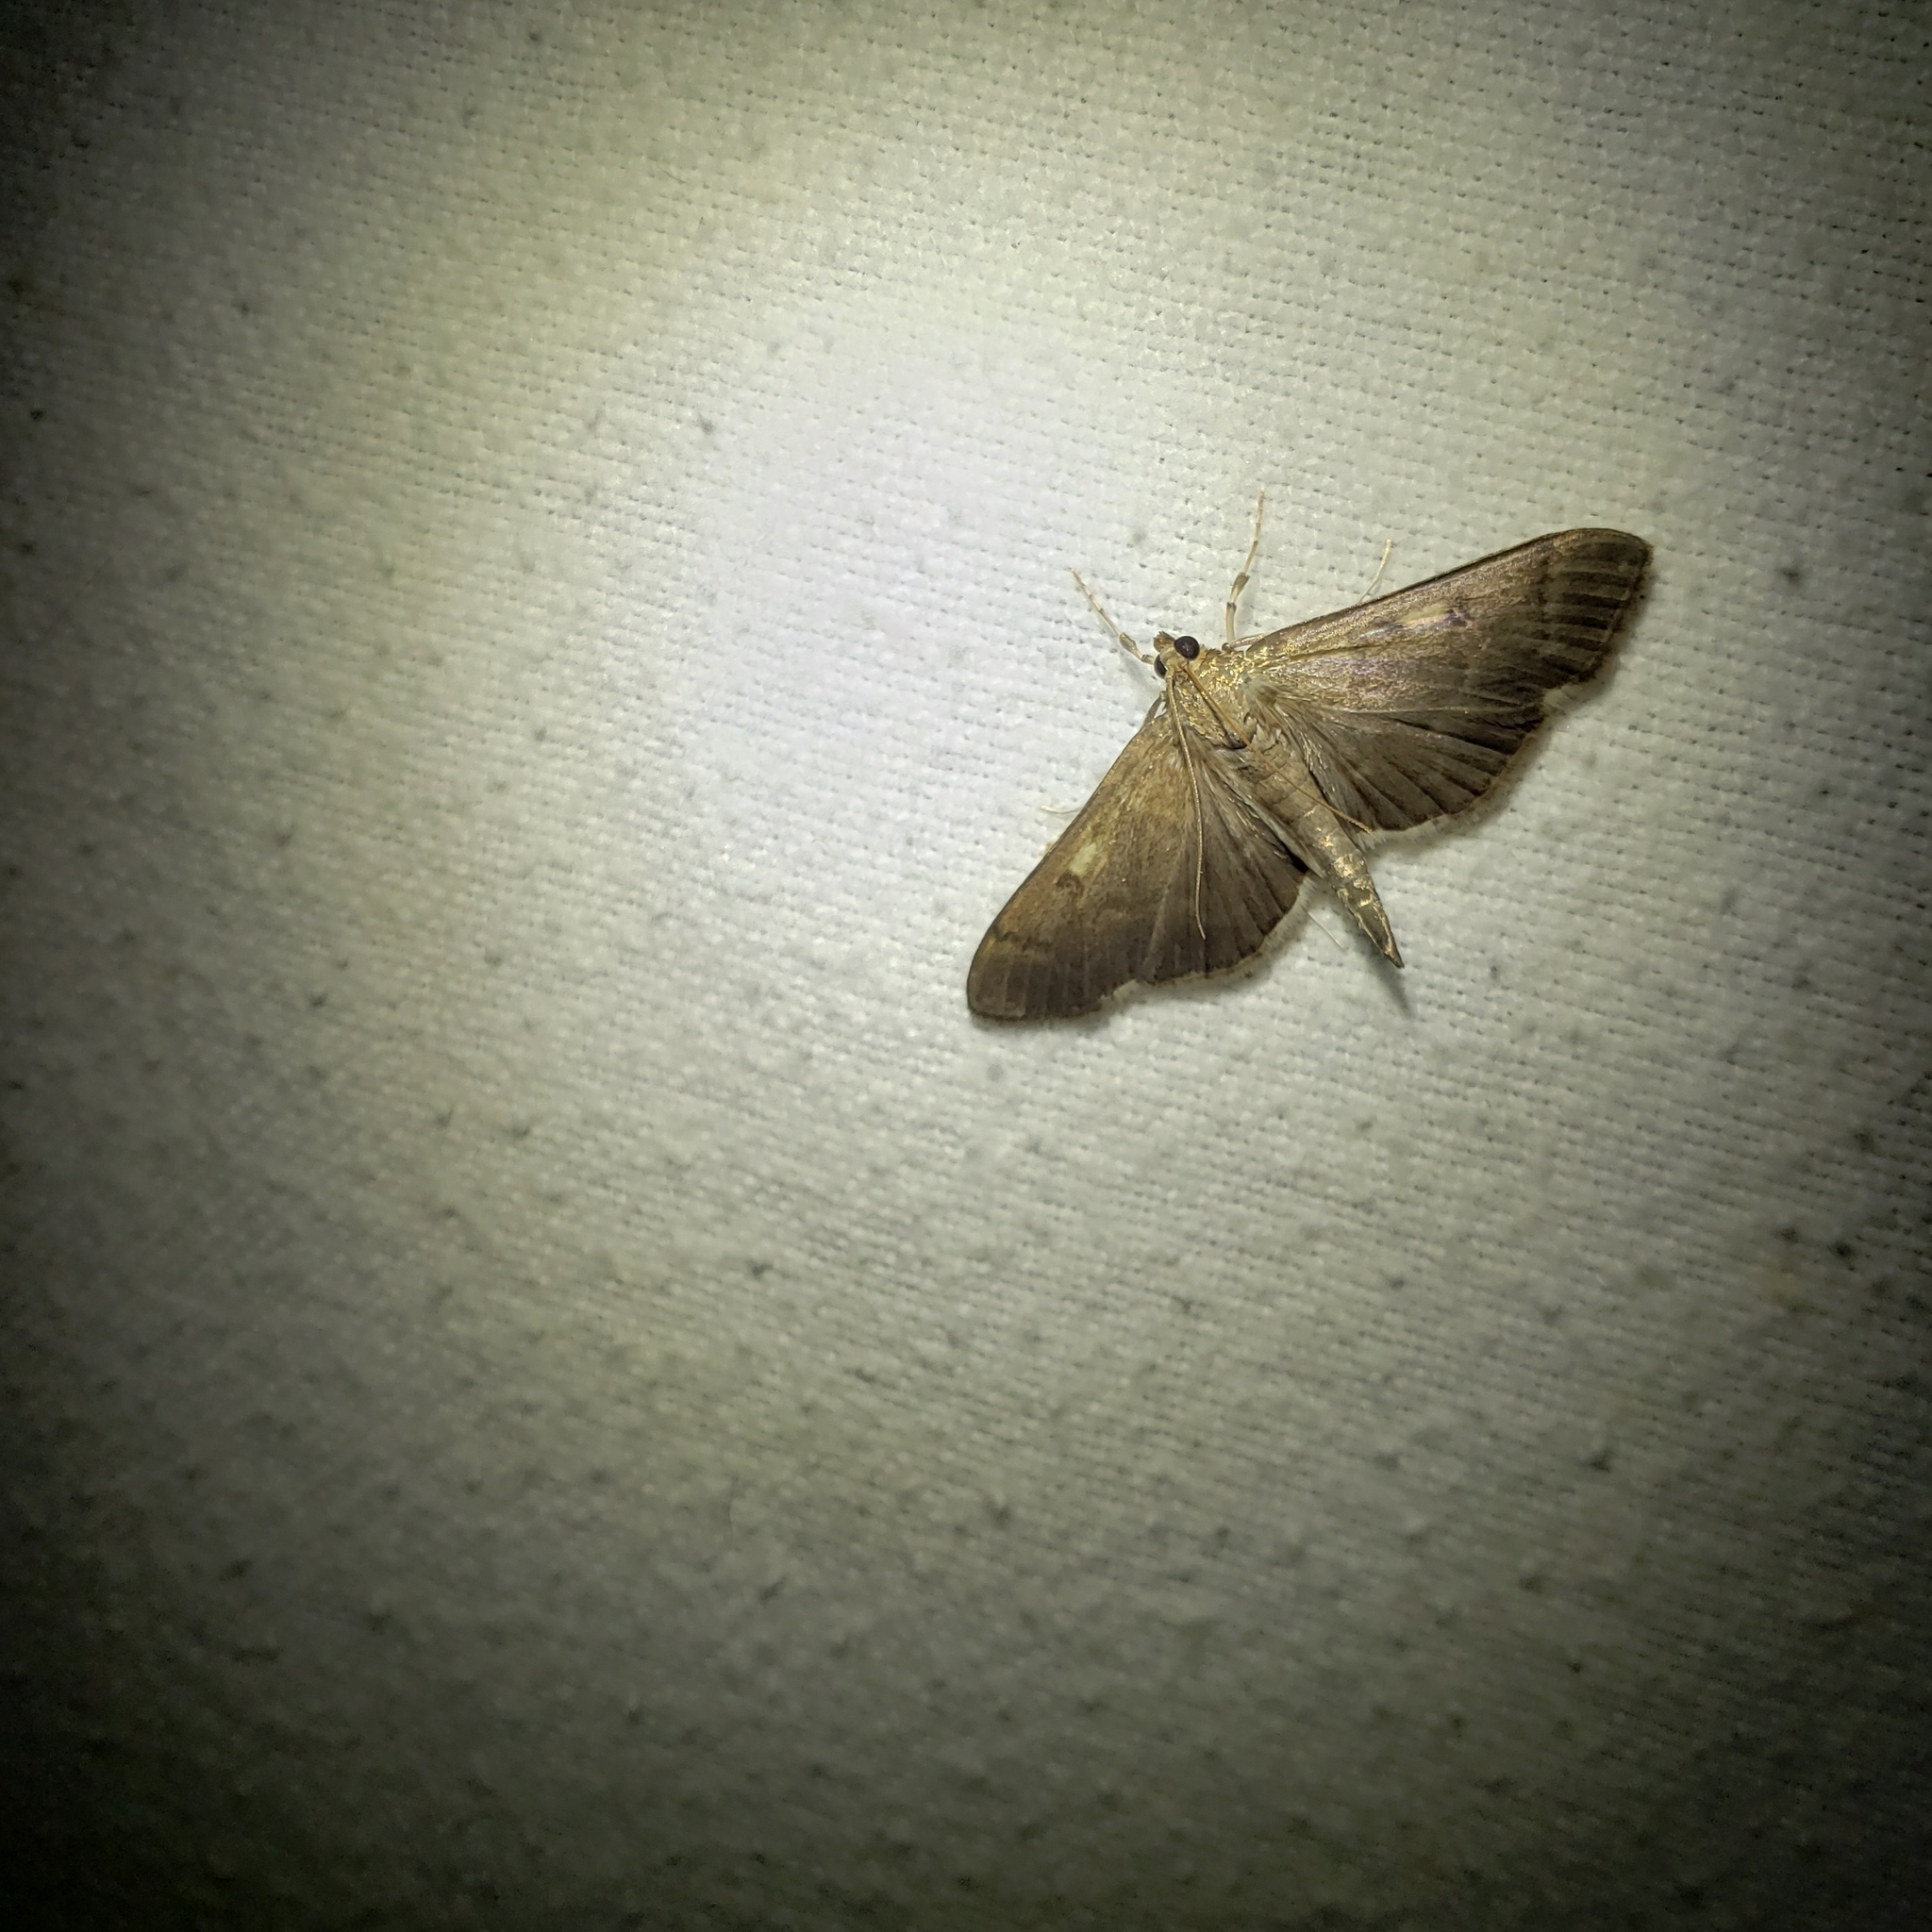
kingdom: Animalia
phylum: Arthropoda
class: Insecta
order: Lepidoptera
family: Geometridae
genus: Orthonama
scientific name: Orthonama obstipata
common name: The gem
